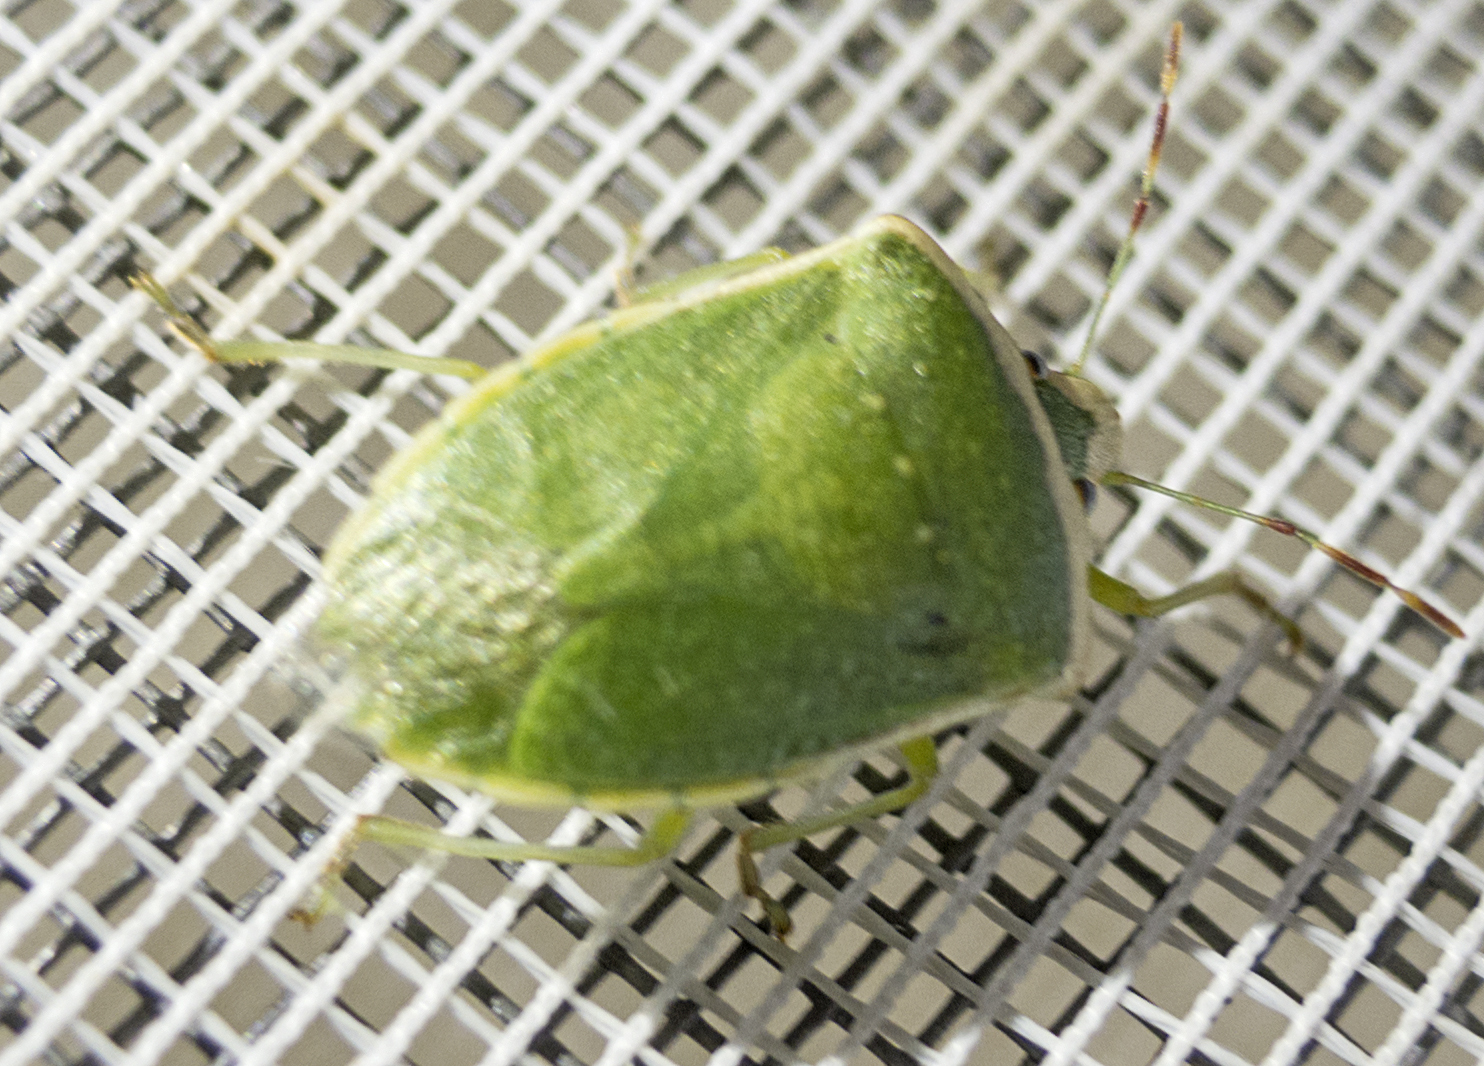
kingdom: Animalia
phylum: Arthropoda
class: Insecta
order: Hemiptera
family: Pentatomidae
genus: Nezara
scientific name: Nezara viridula
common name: Southern green stink bug
